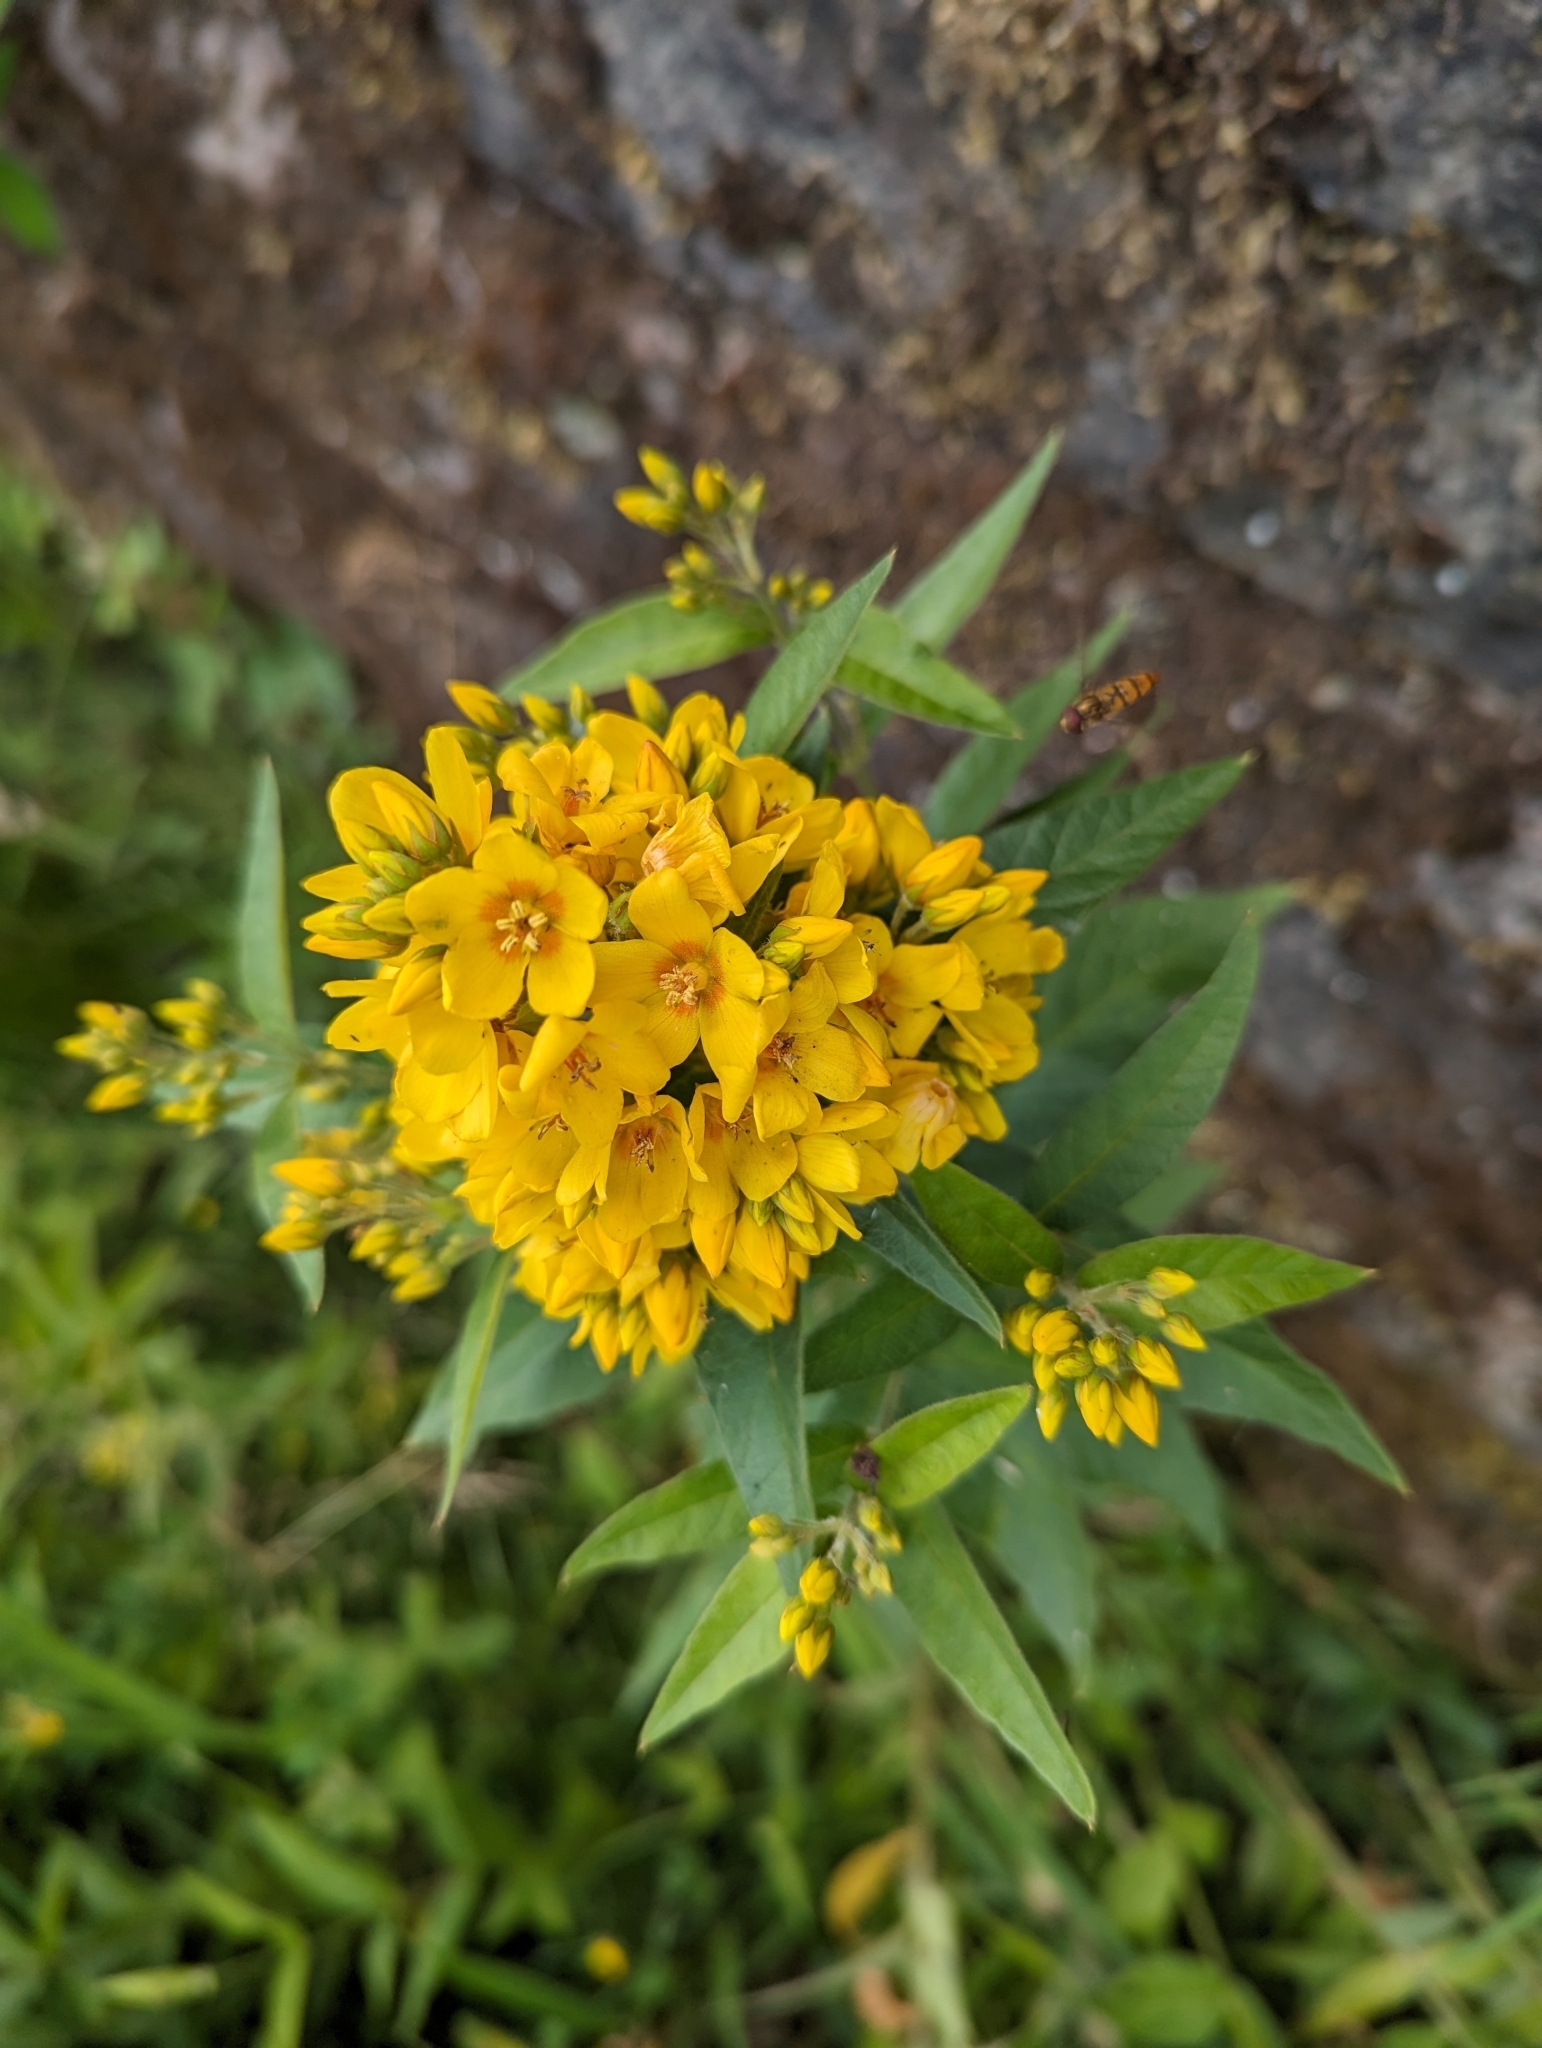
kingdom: Plantae
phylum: Tracheophyta
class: Magnoliopsida
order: Ericales
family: Primulaceae
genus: Lysimachia
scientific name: Lysimachia vulgaris
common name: Yellow loosestrife
